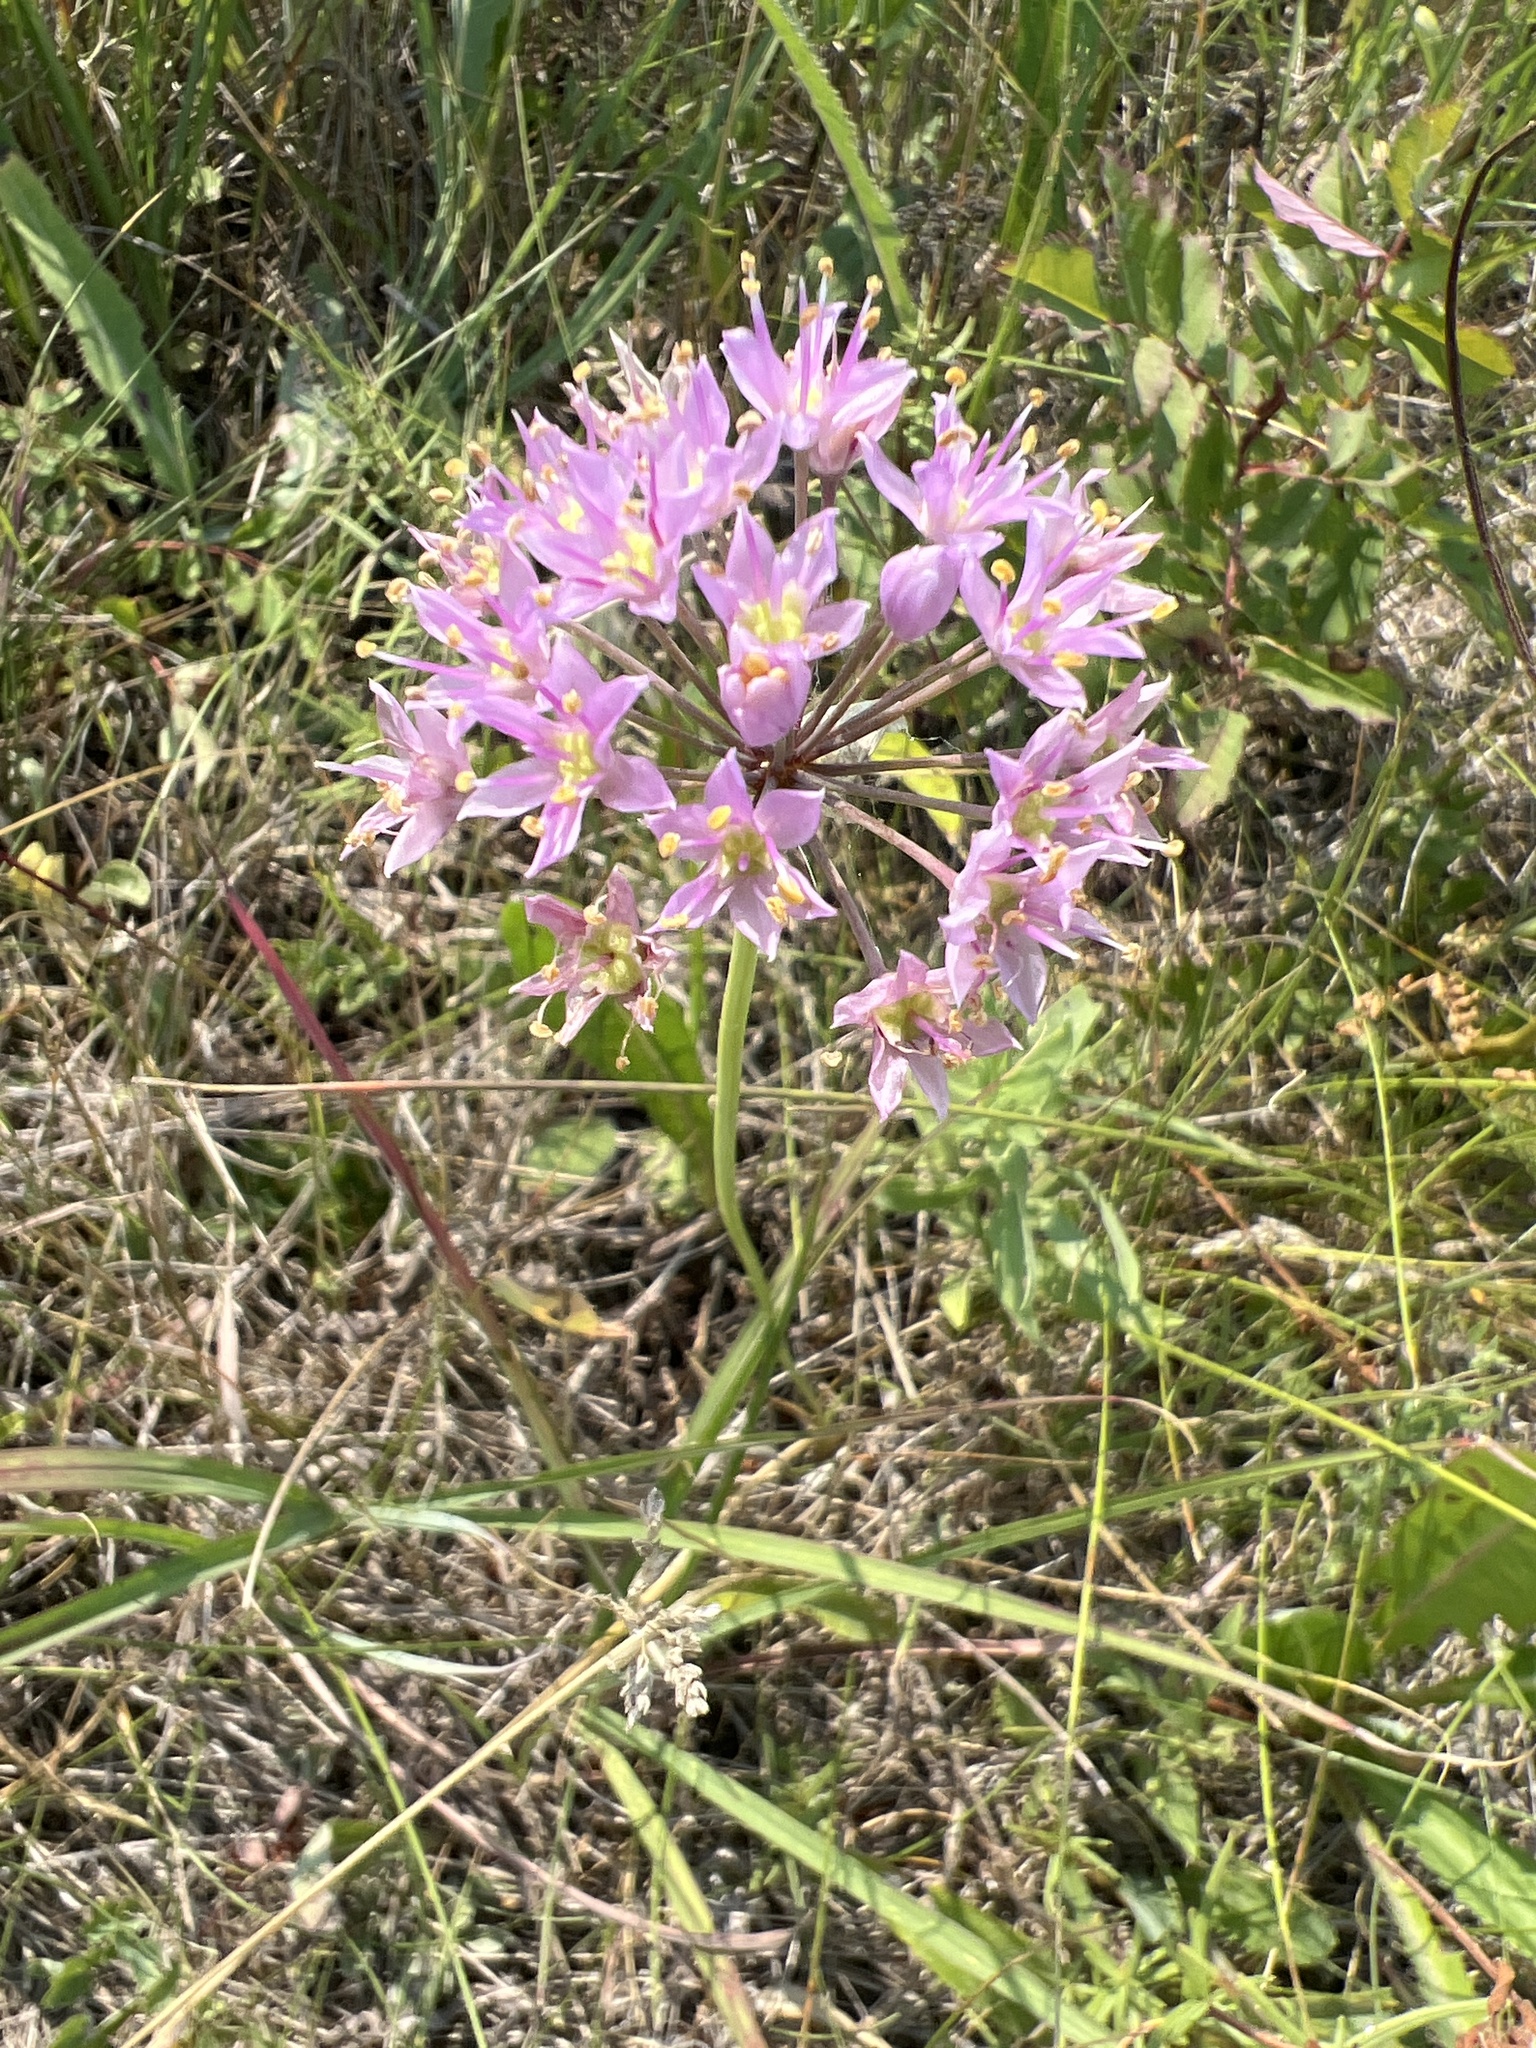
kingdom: Plantae
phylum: Tracheophyta
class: Liliopsida
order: Asparagales
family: Amaryllidaceae
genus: Allium
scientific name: Allium stellatum
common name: Autumn onion
